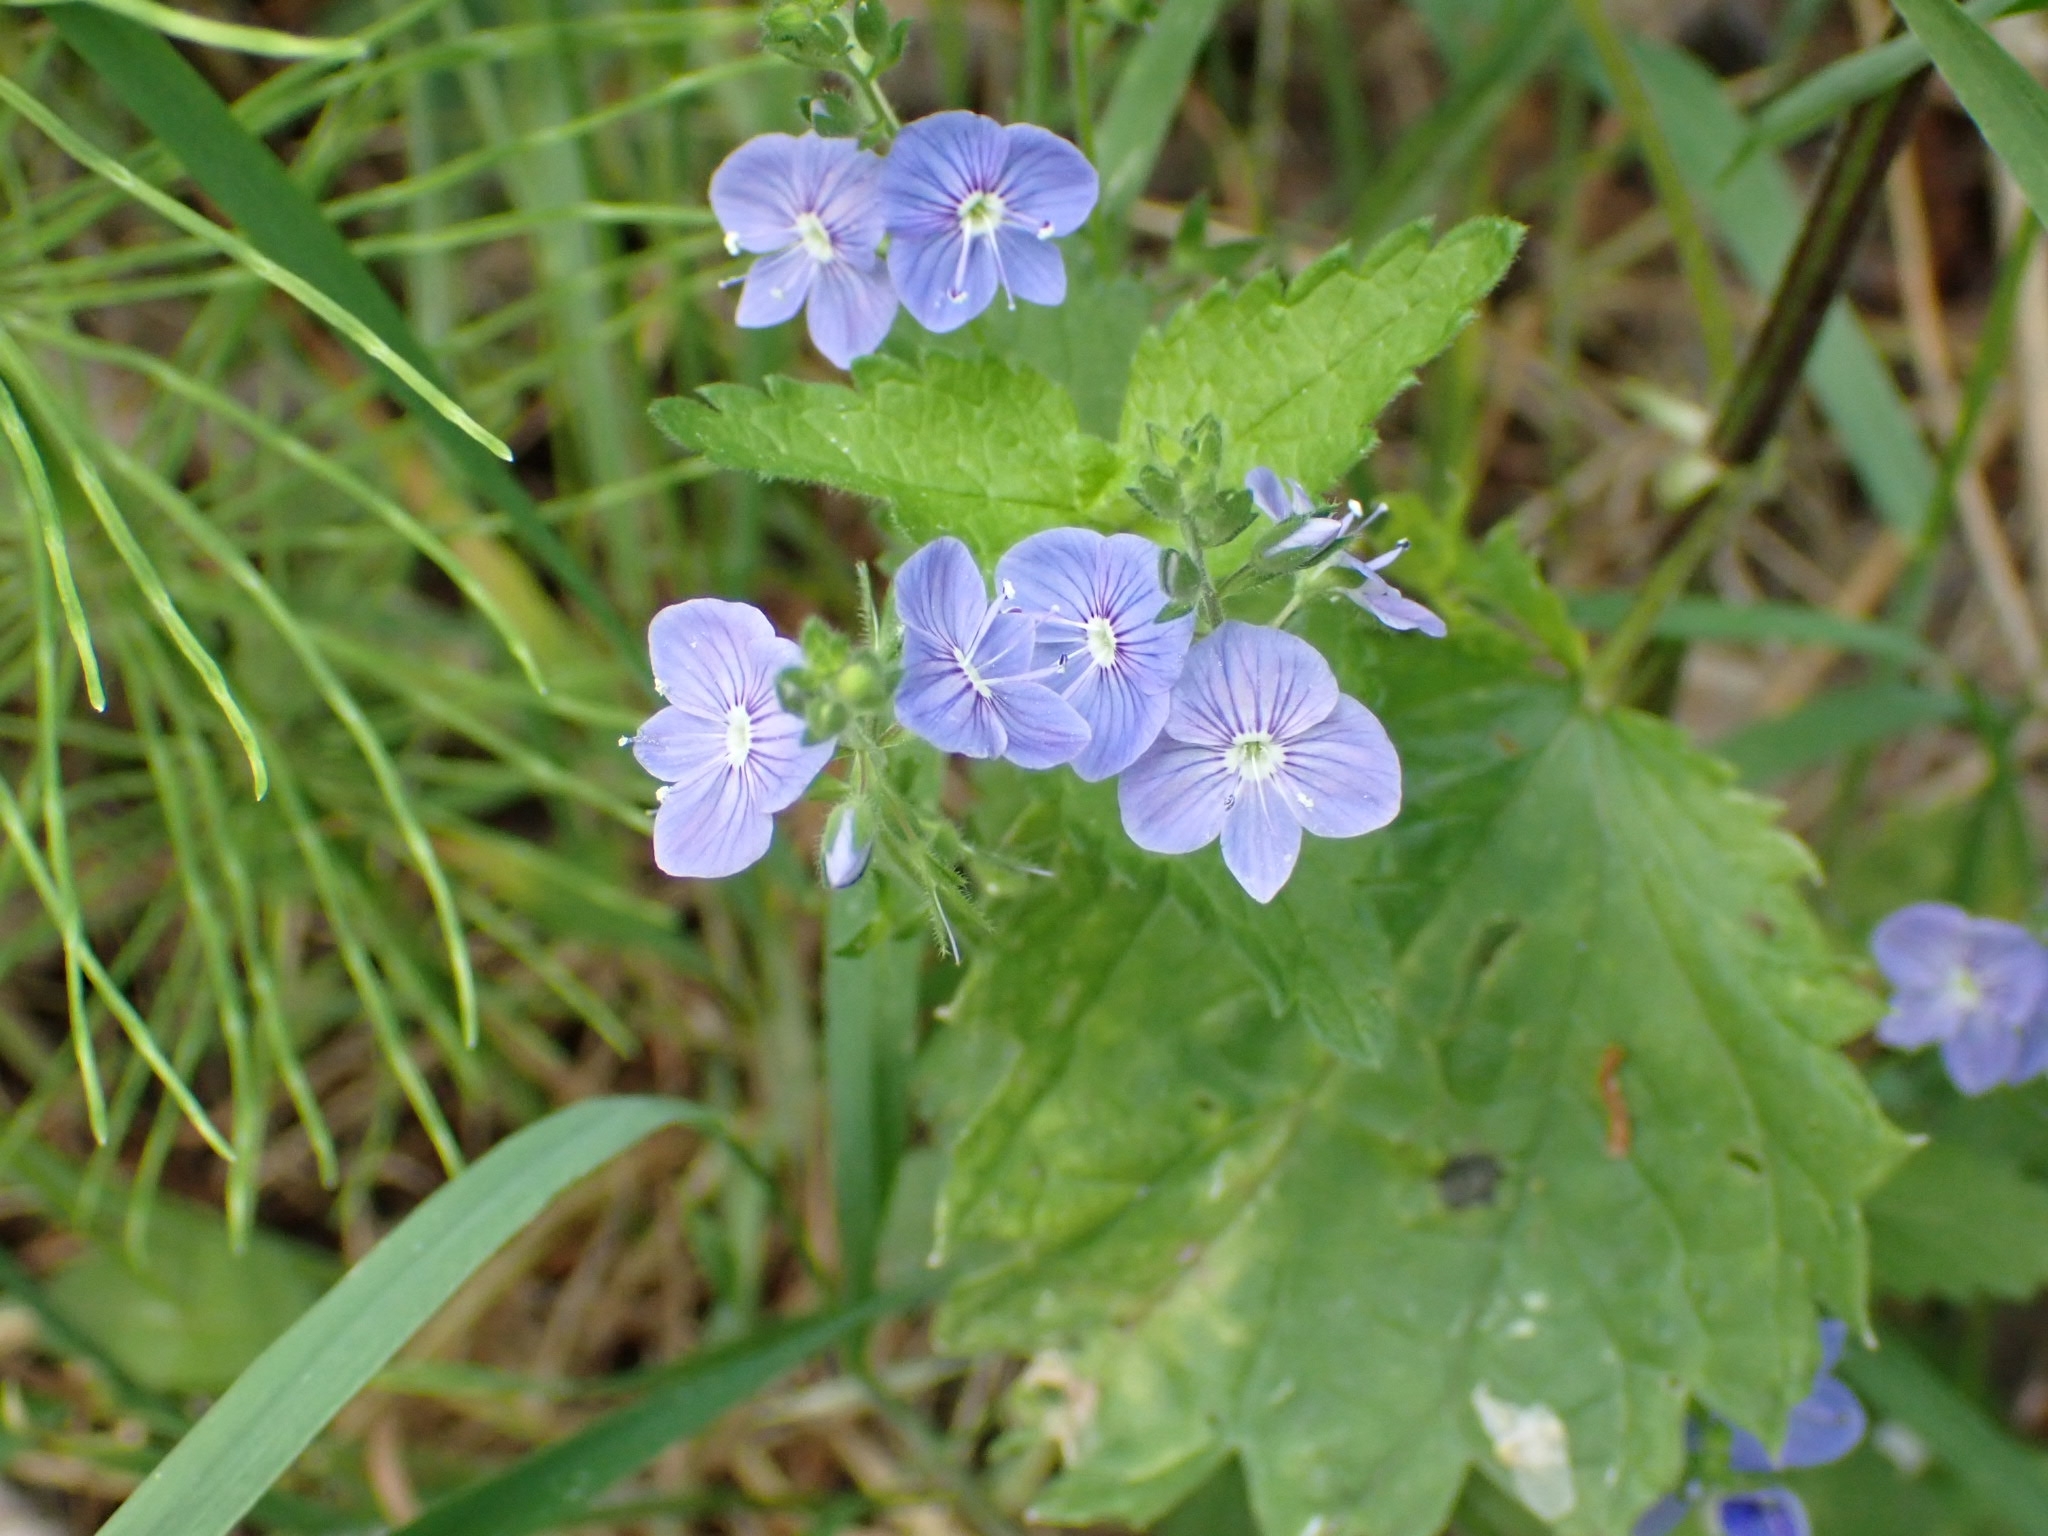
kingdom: Plantae
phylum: Tracheophyta
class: Magnoliopsida
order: Lamiales
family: Plantaginaceae
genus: Veronica
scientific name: Veronica chamaedrys
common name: Germander speedwell
